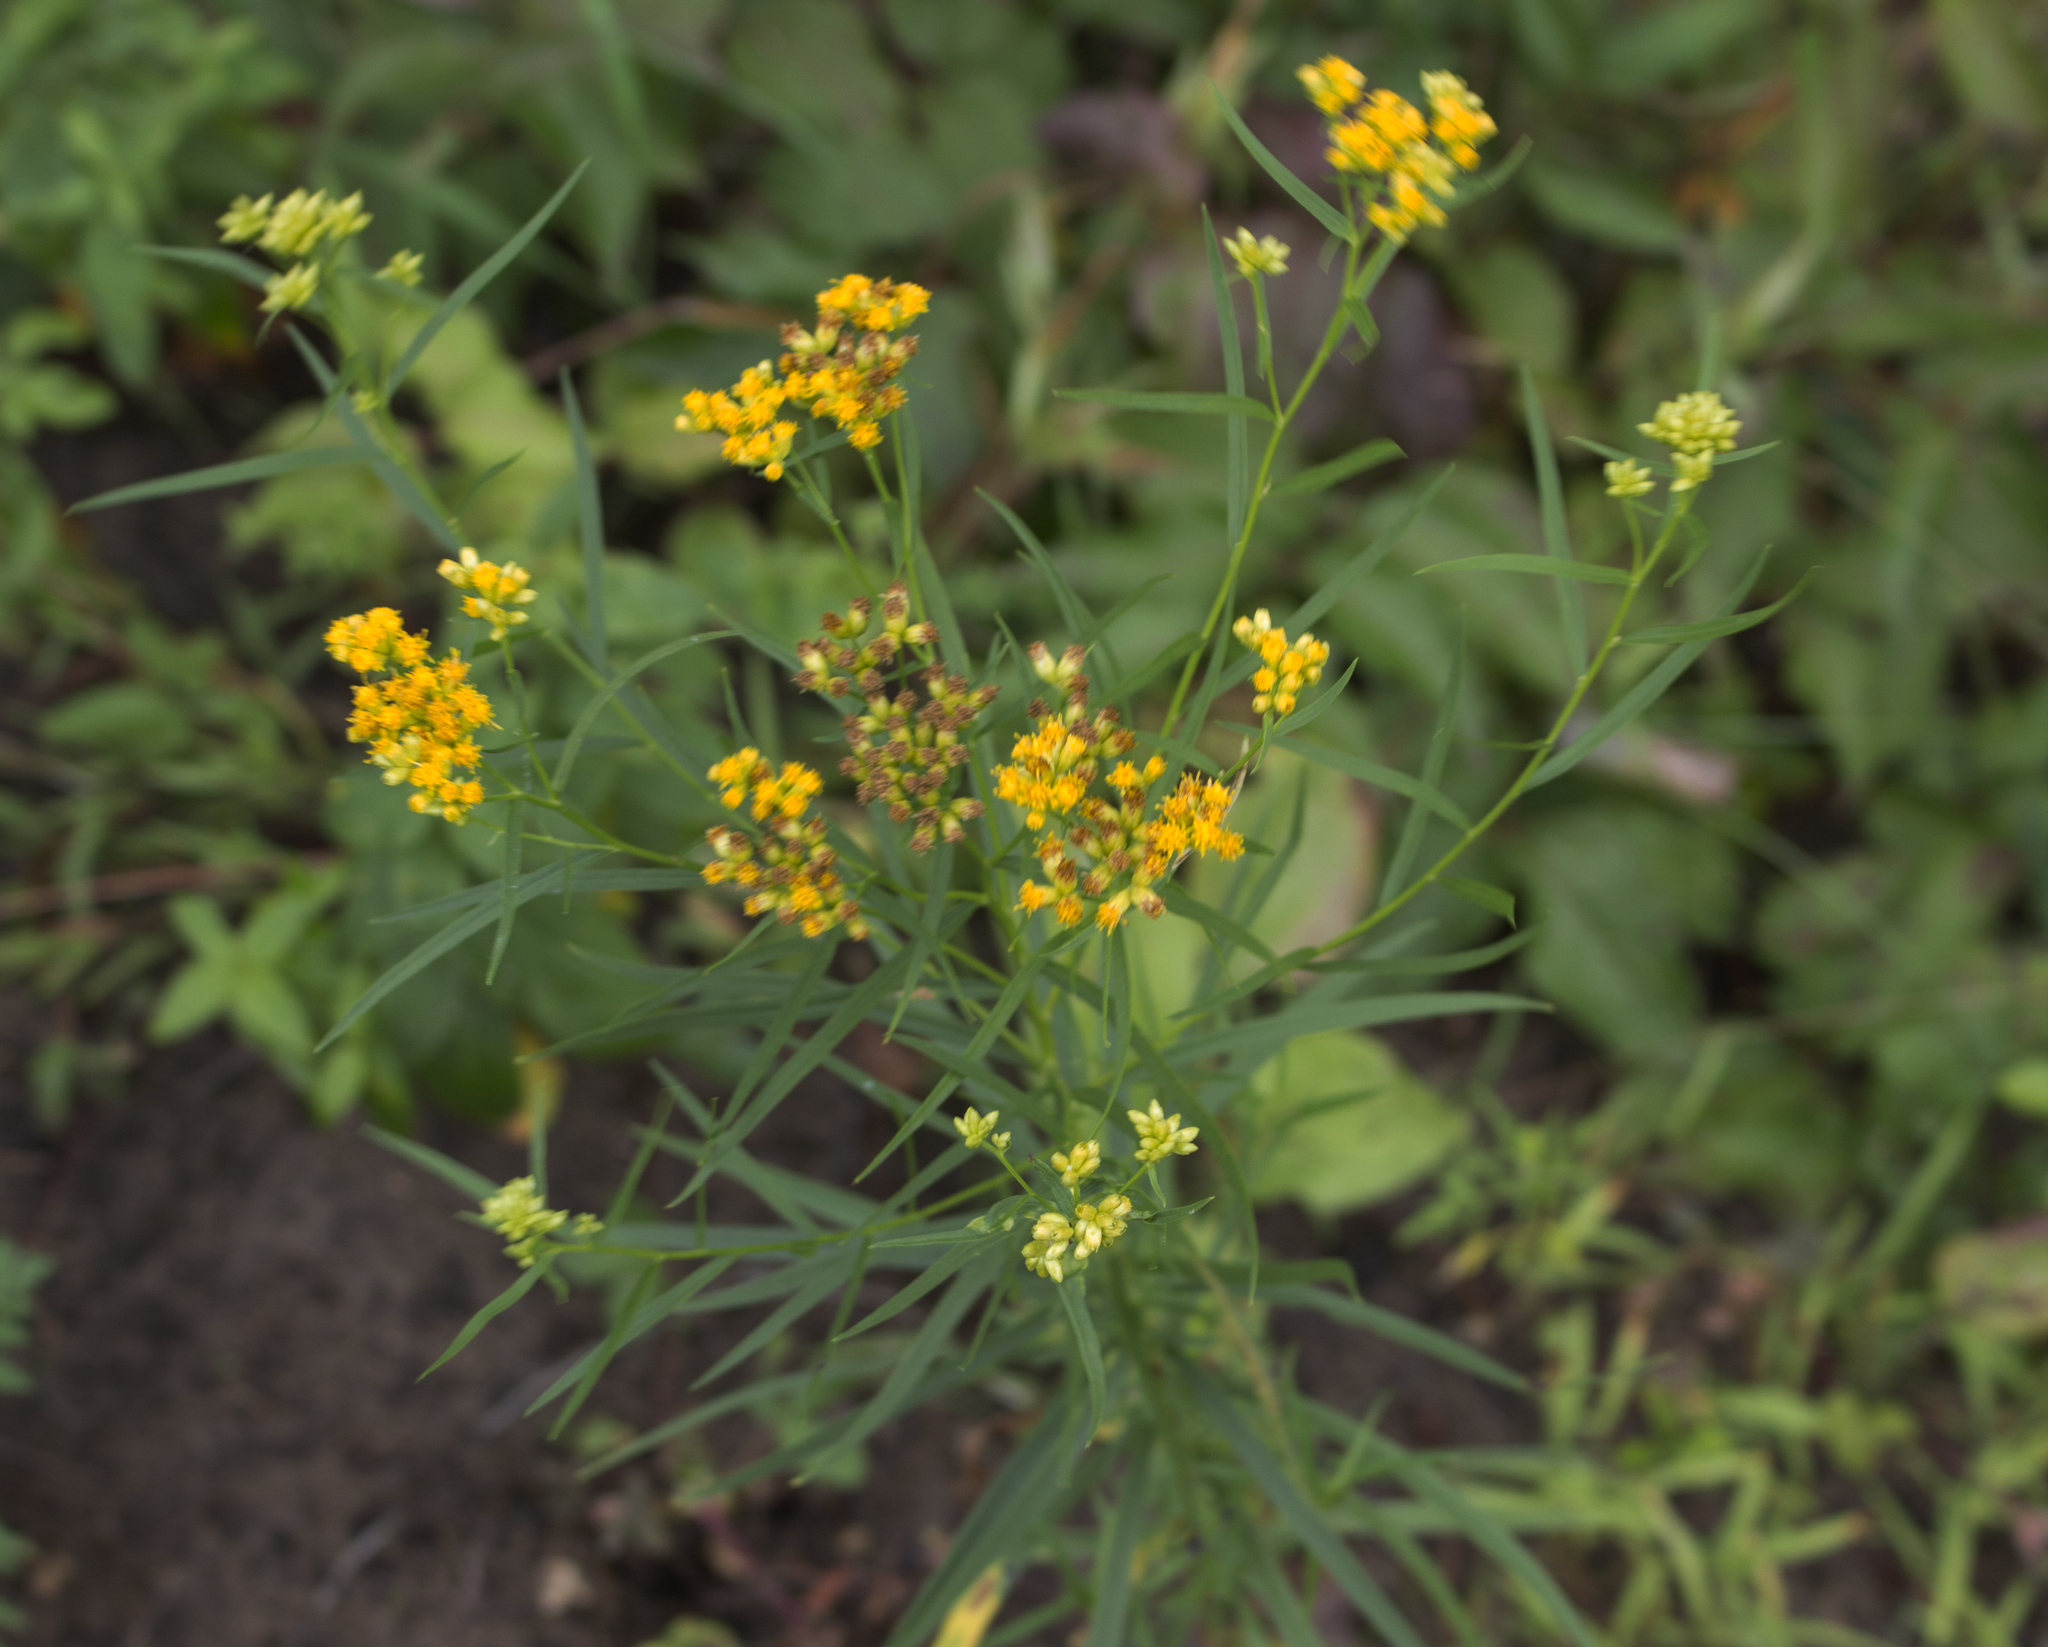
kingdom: Plantae
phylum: Tracheophyta
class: Magnoliopsida
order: Asterales
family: Asteraceae
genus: Euthamia
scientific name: Euthamia graminifolia
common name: Common goldentop
